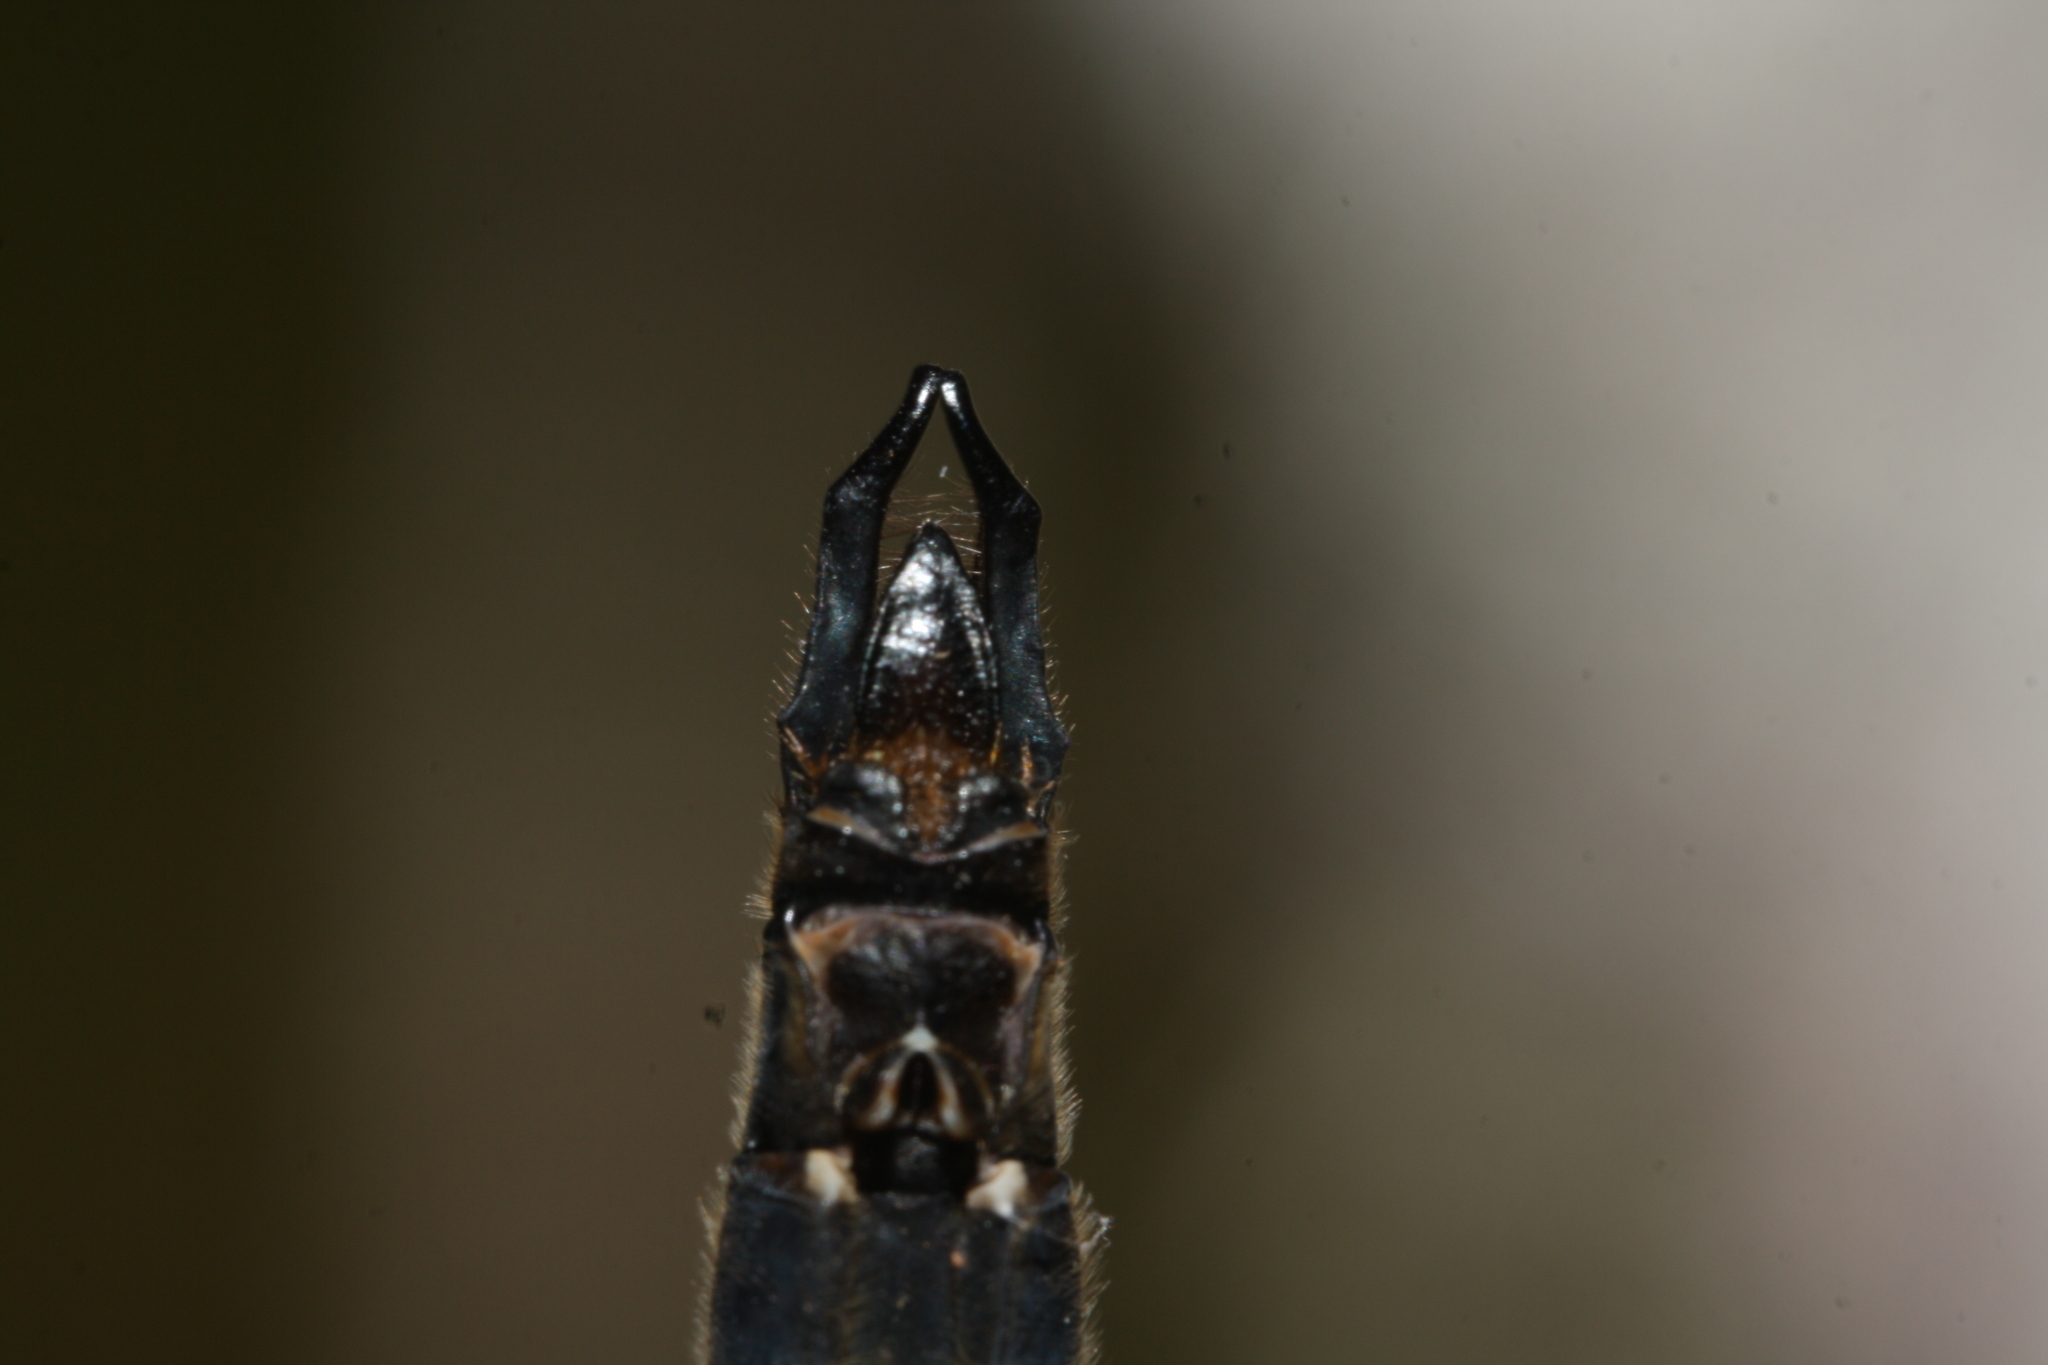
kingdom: Animalia
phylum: Arthropoda
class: Insecta
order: Odonata
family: Corduliidae
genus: Somatochlora
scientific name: Somatochlora alpestris
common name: Alpine emerald
